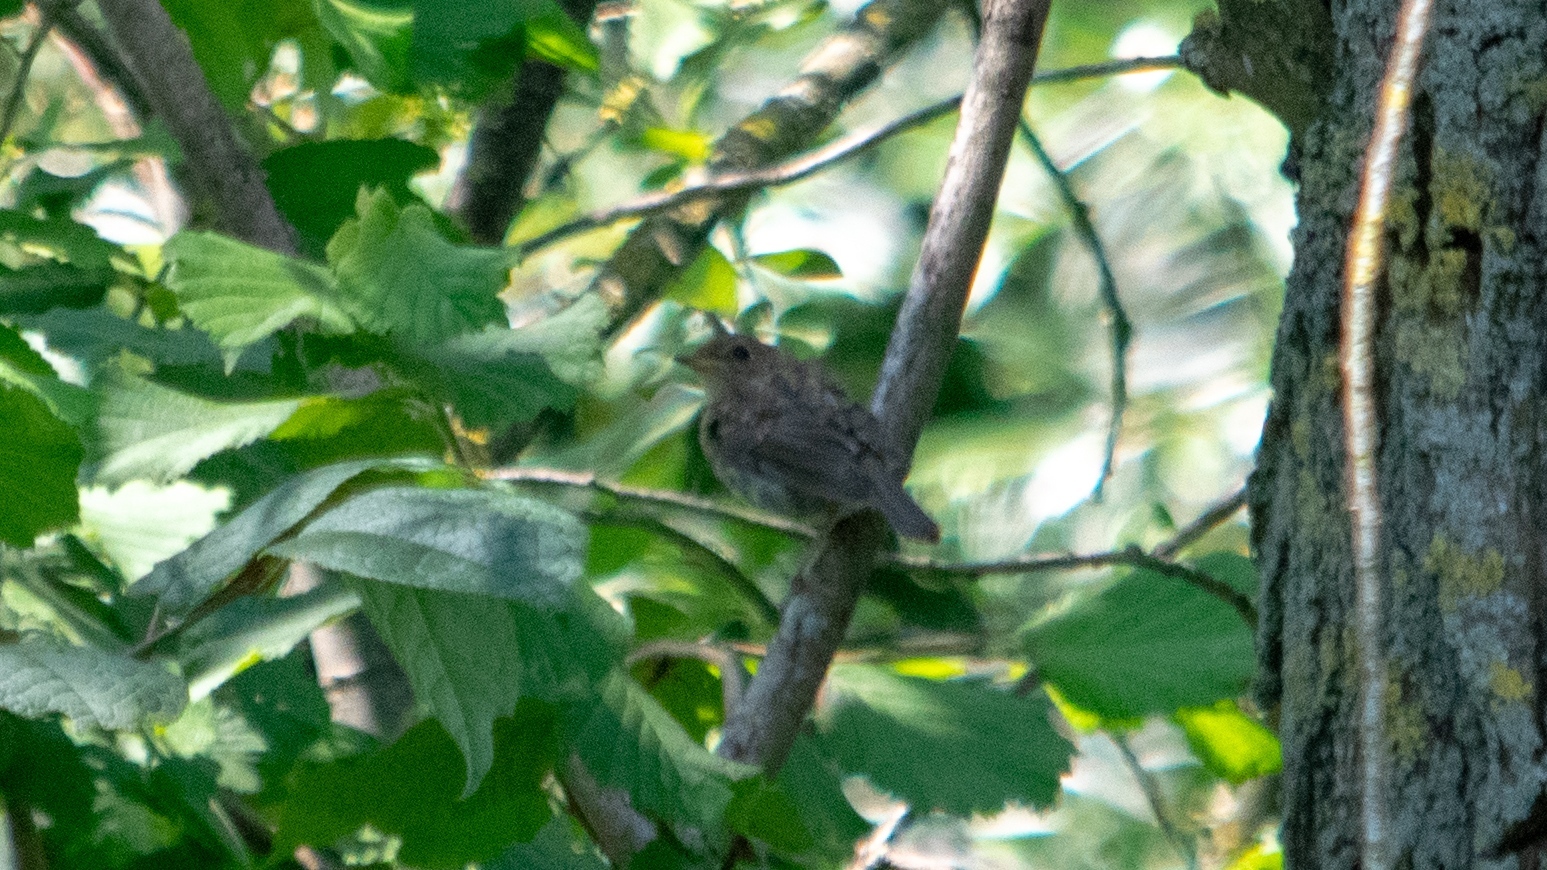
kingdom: Animalia
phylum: Chordata
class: Aves
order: Passeriformes
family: Muscicapidae
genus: Erithacus
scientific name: Erithacus rubecula
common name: European robin
